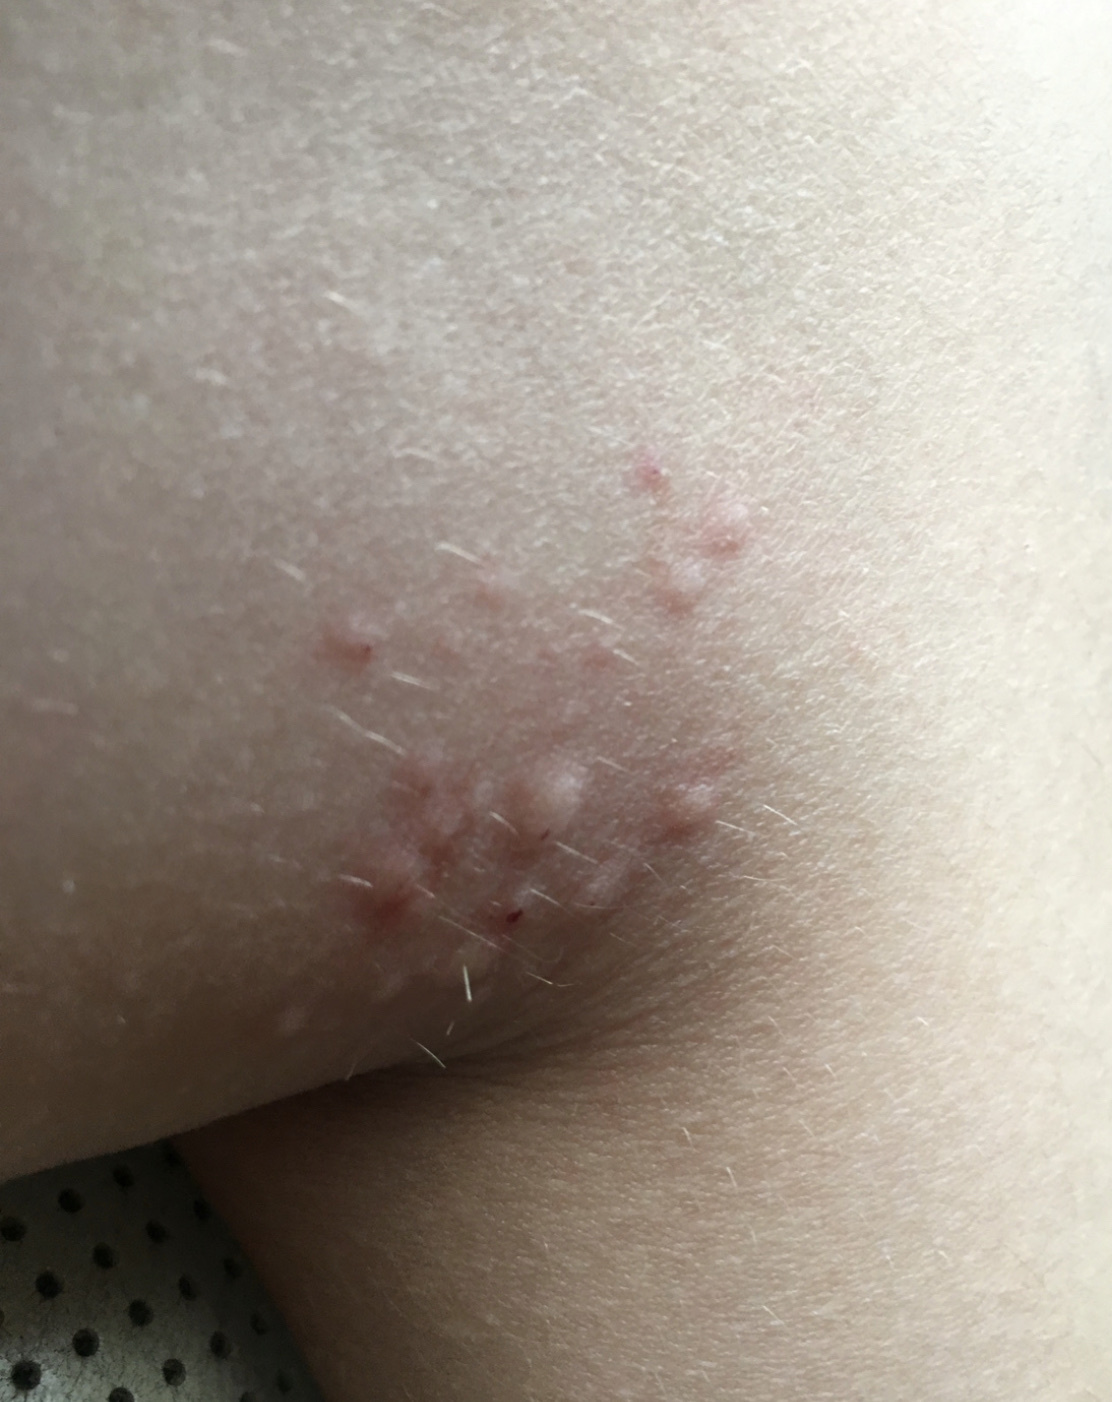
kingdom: Plantae
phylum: Tracheophyta
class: Magnoliopsida
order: Caryophyllales
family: Cactaceae
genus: Opuntia
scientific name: Opuntia fragilis
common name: Brittle cactus
